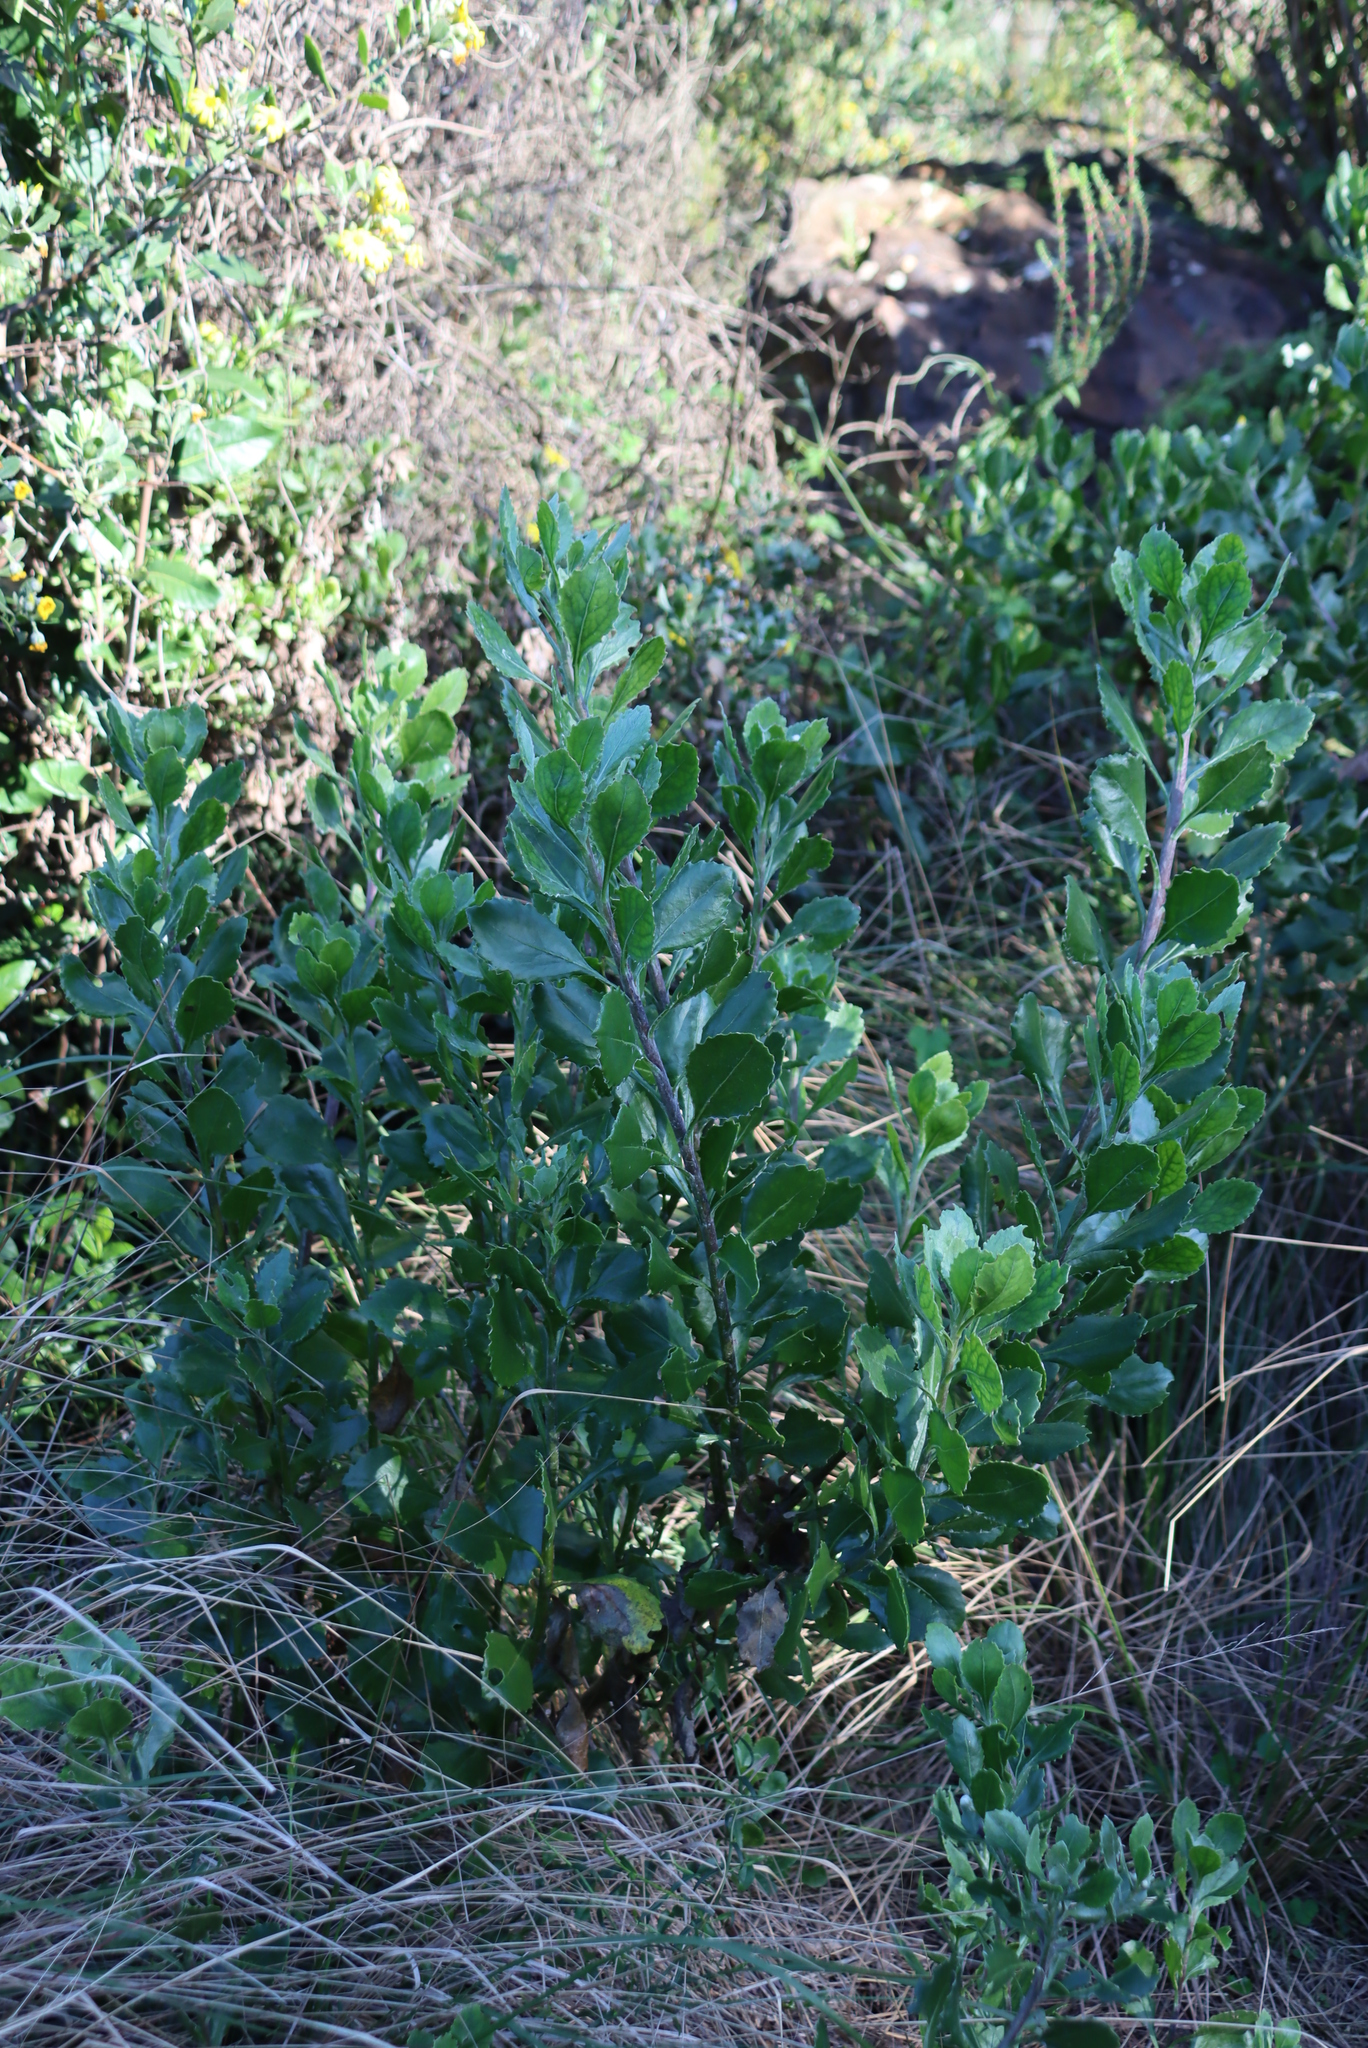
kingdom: Plantae
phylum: Tracheophyta
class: Magnoliopsida
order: Asterales
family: Asteraceae
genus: Osteospermum
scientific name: Osteospermum moniliferum
